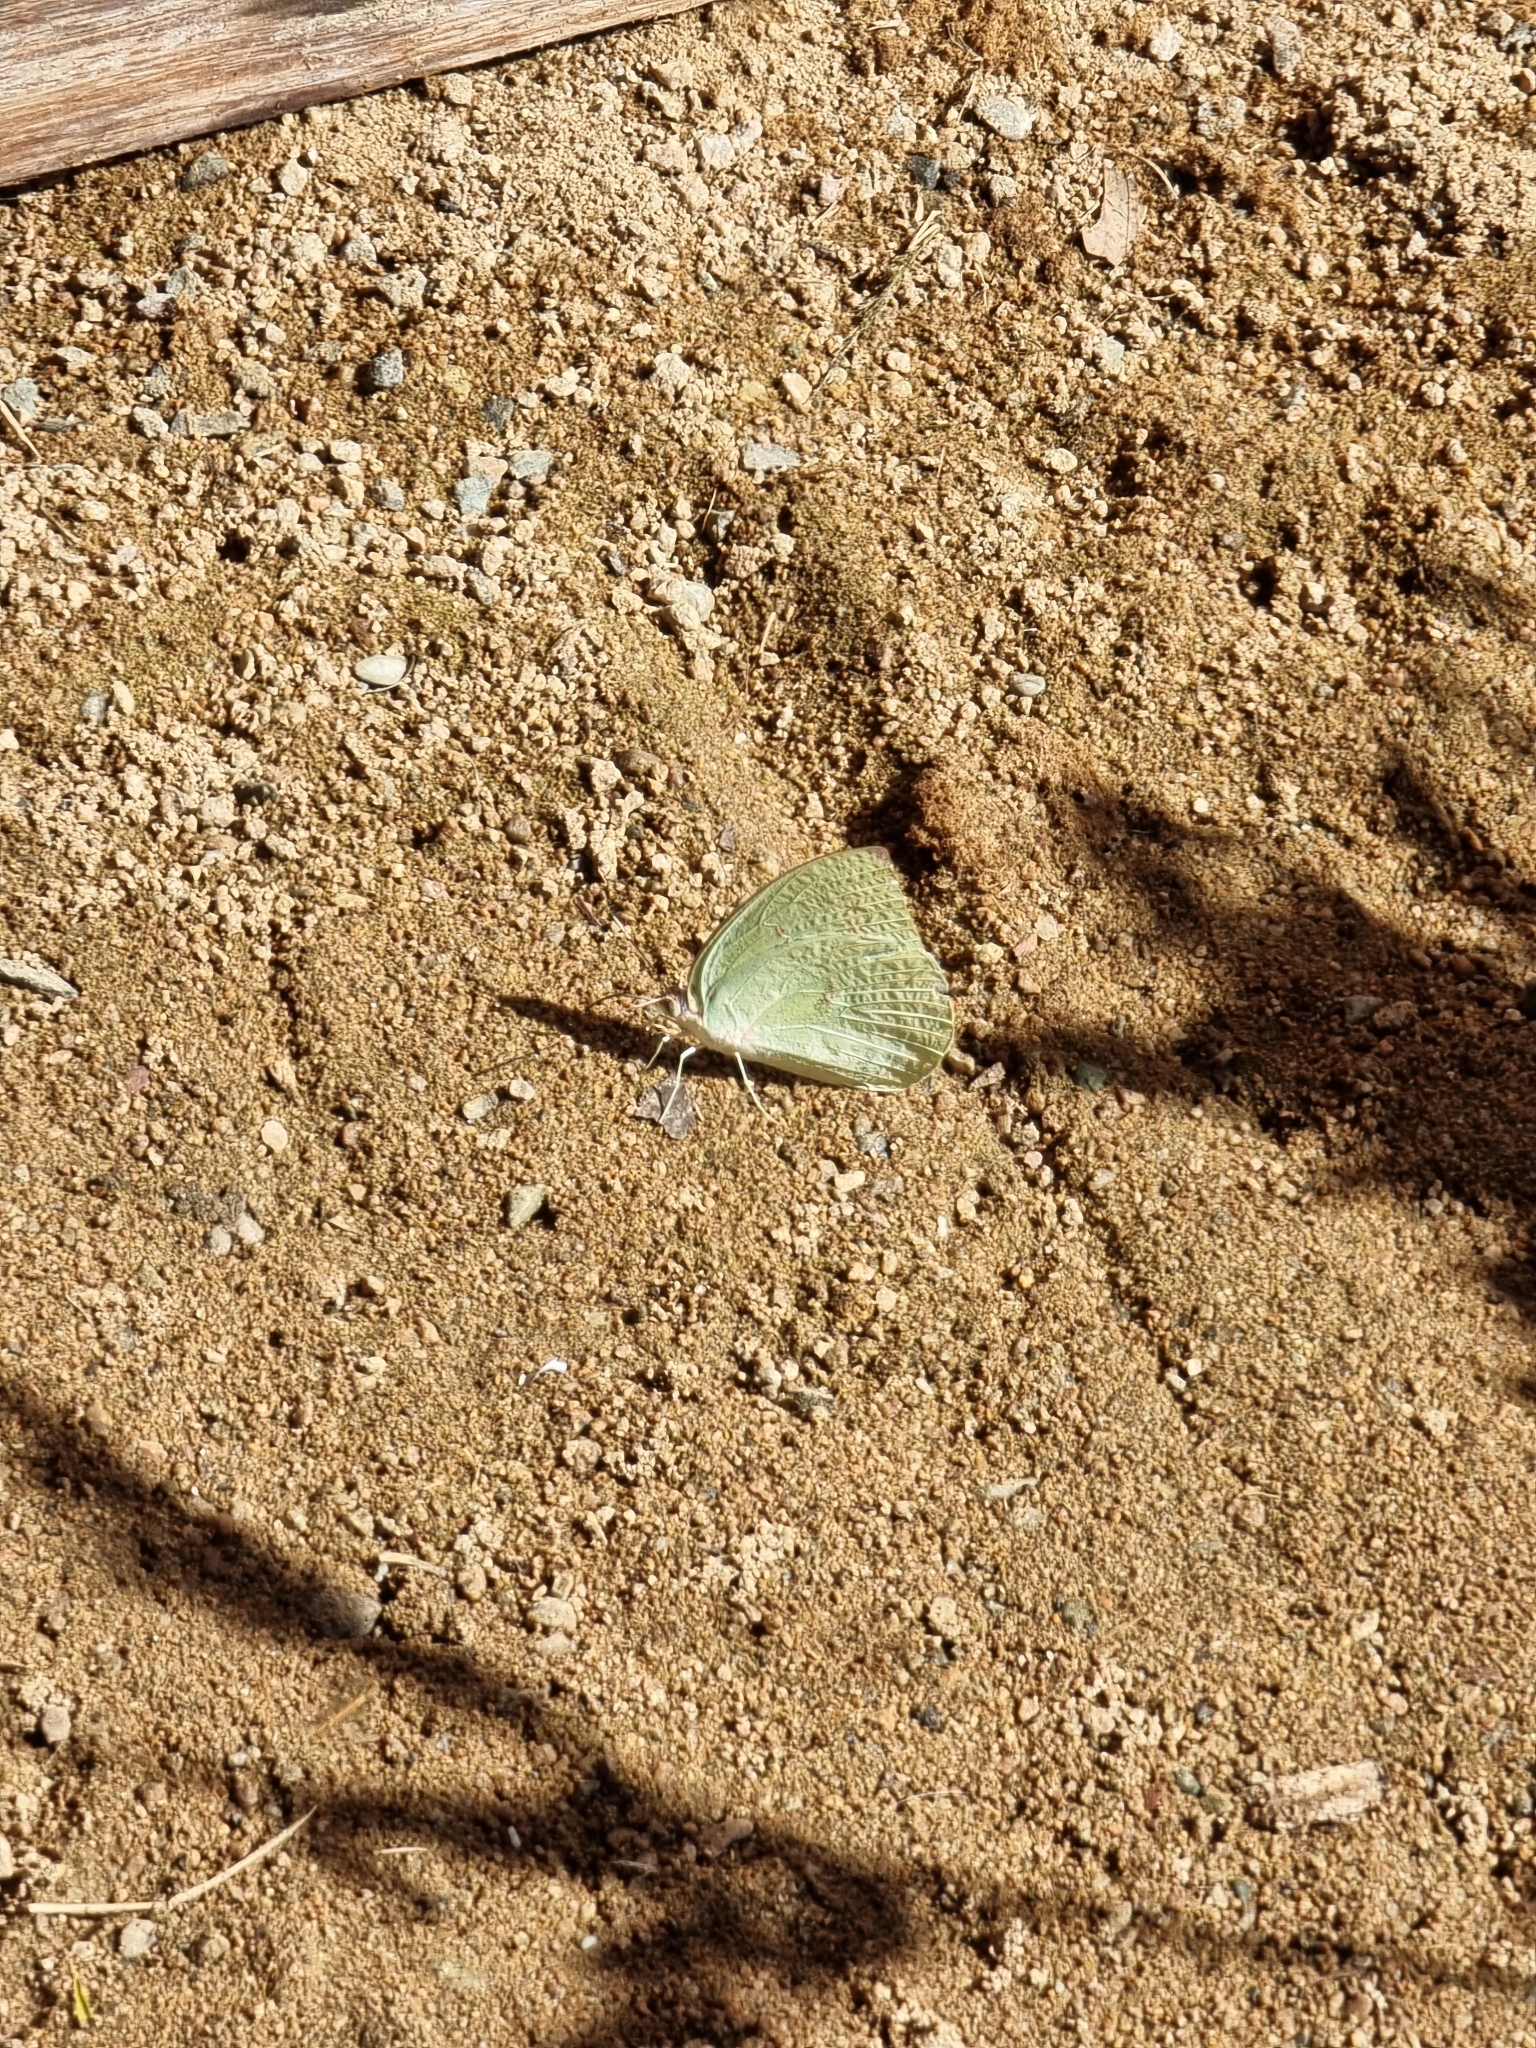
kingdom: Animalia
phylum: Arthropoda
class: Insecta
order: Lepidoptera
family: Pieridae
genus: Catopsilia
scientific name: Catopsilia pomona
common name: Common emigrant
